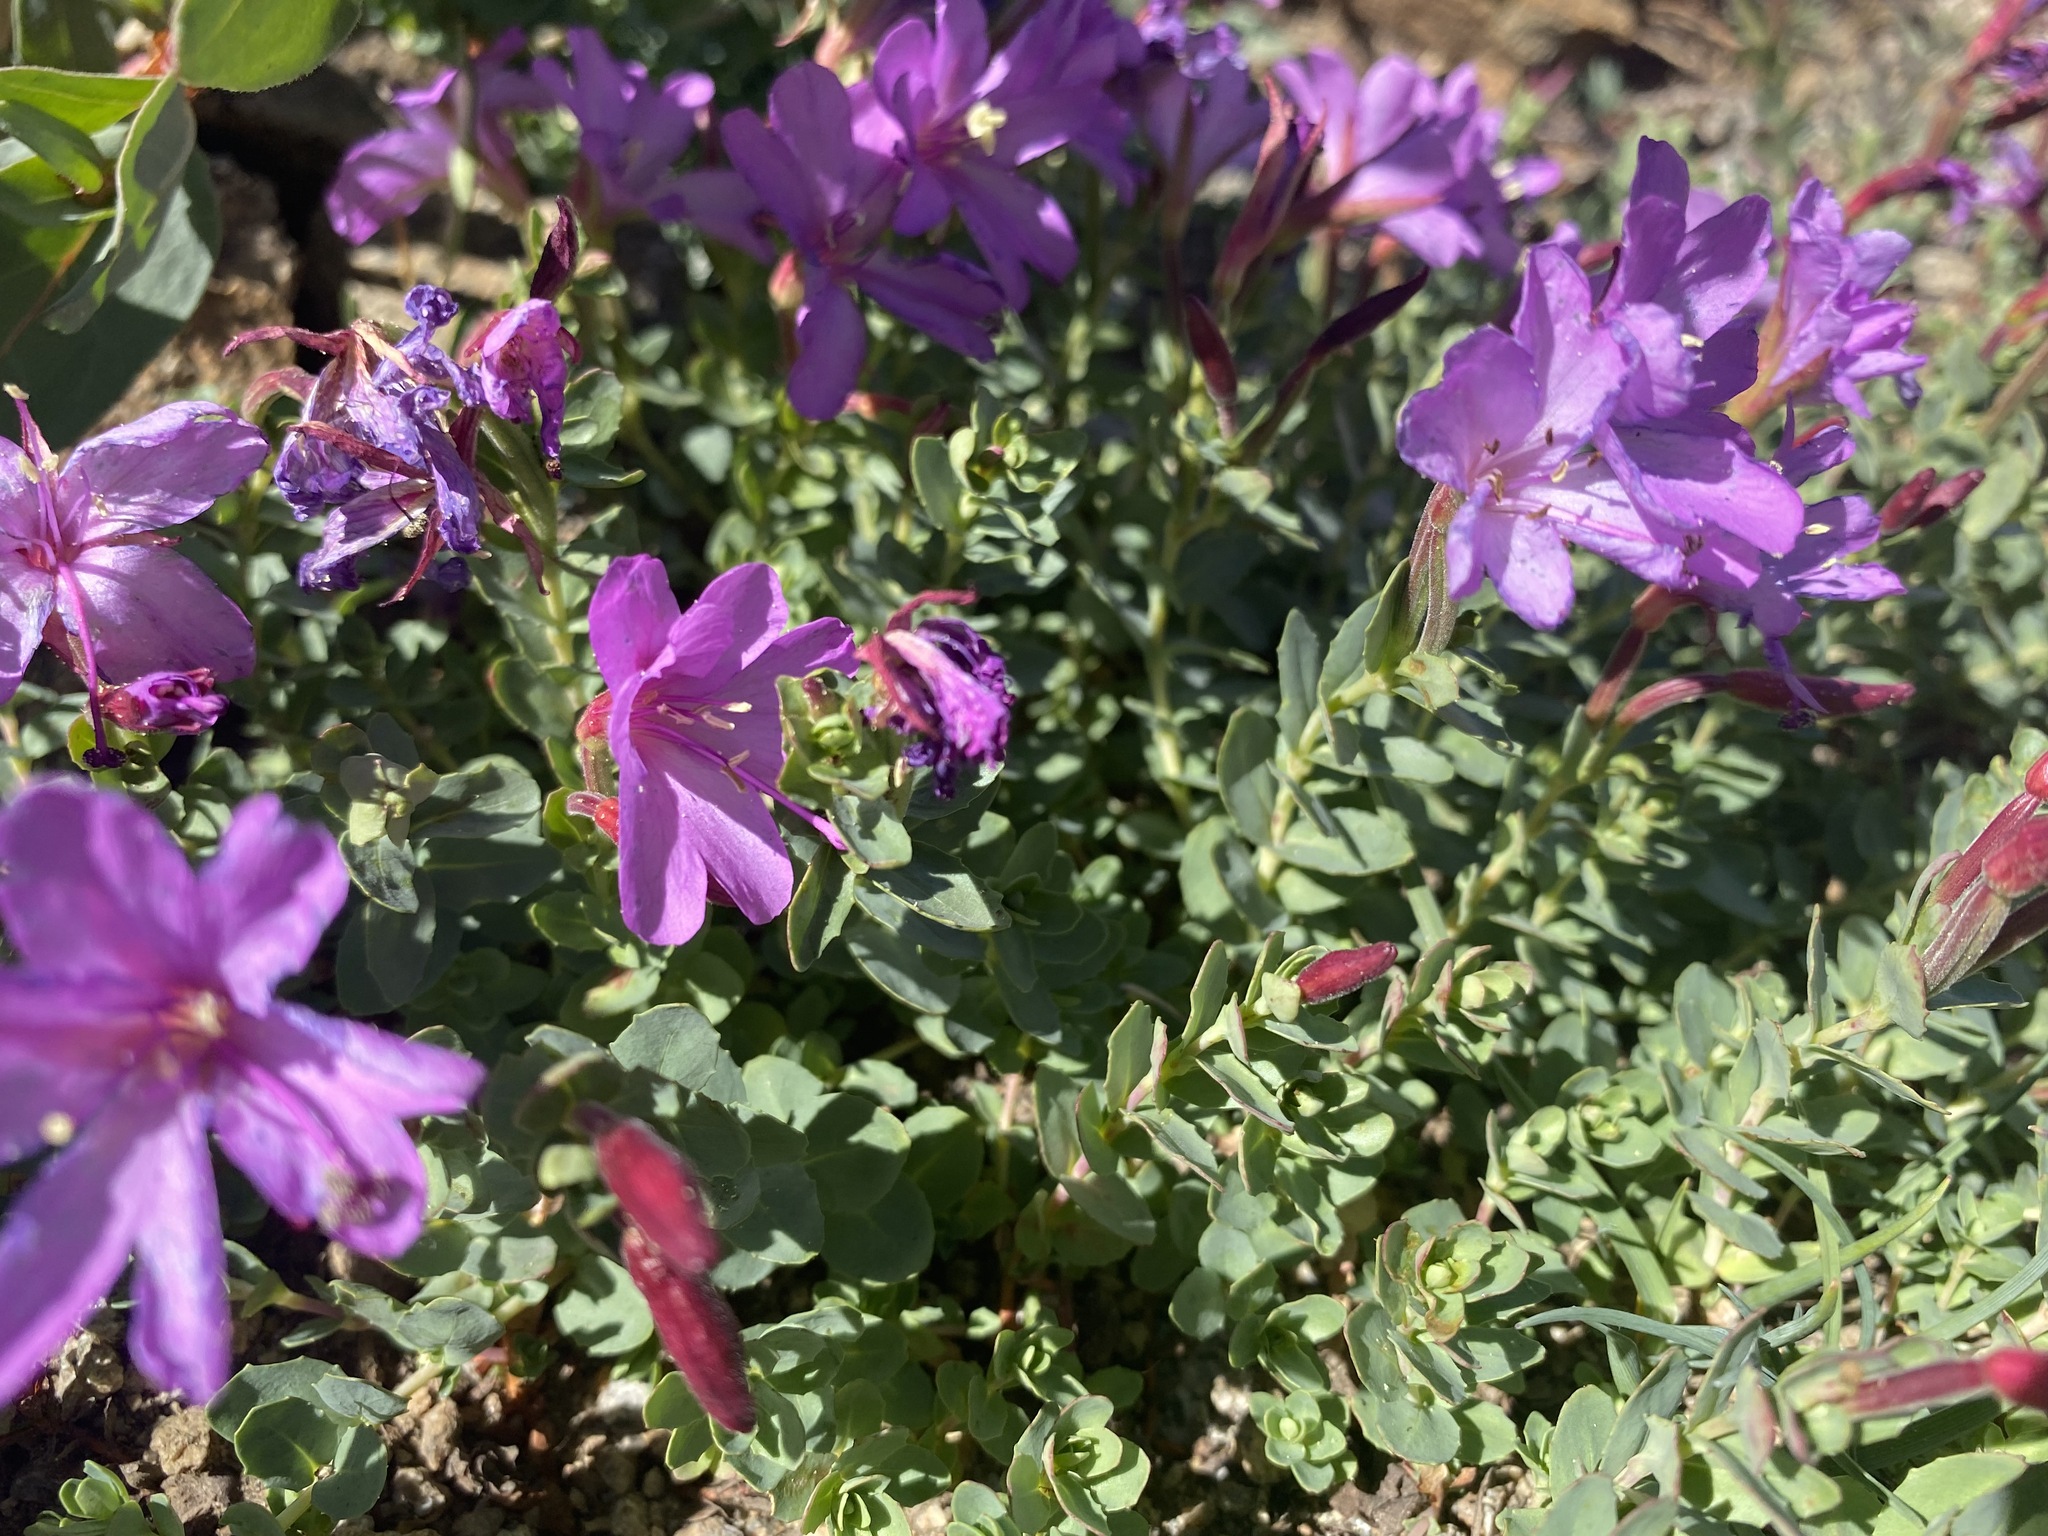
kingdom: Plantae
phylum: Tracheophyta
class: Magnoliopsida
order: Myrtales
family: Onagraceae
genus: Epilobium
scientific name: Epilobium obcordatum
